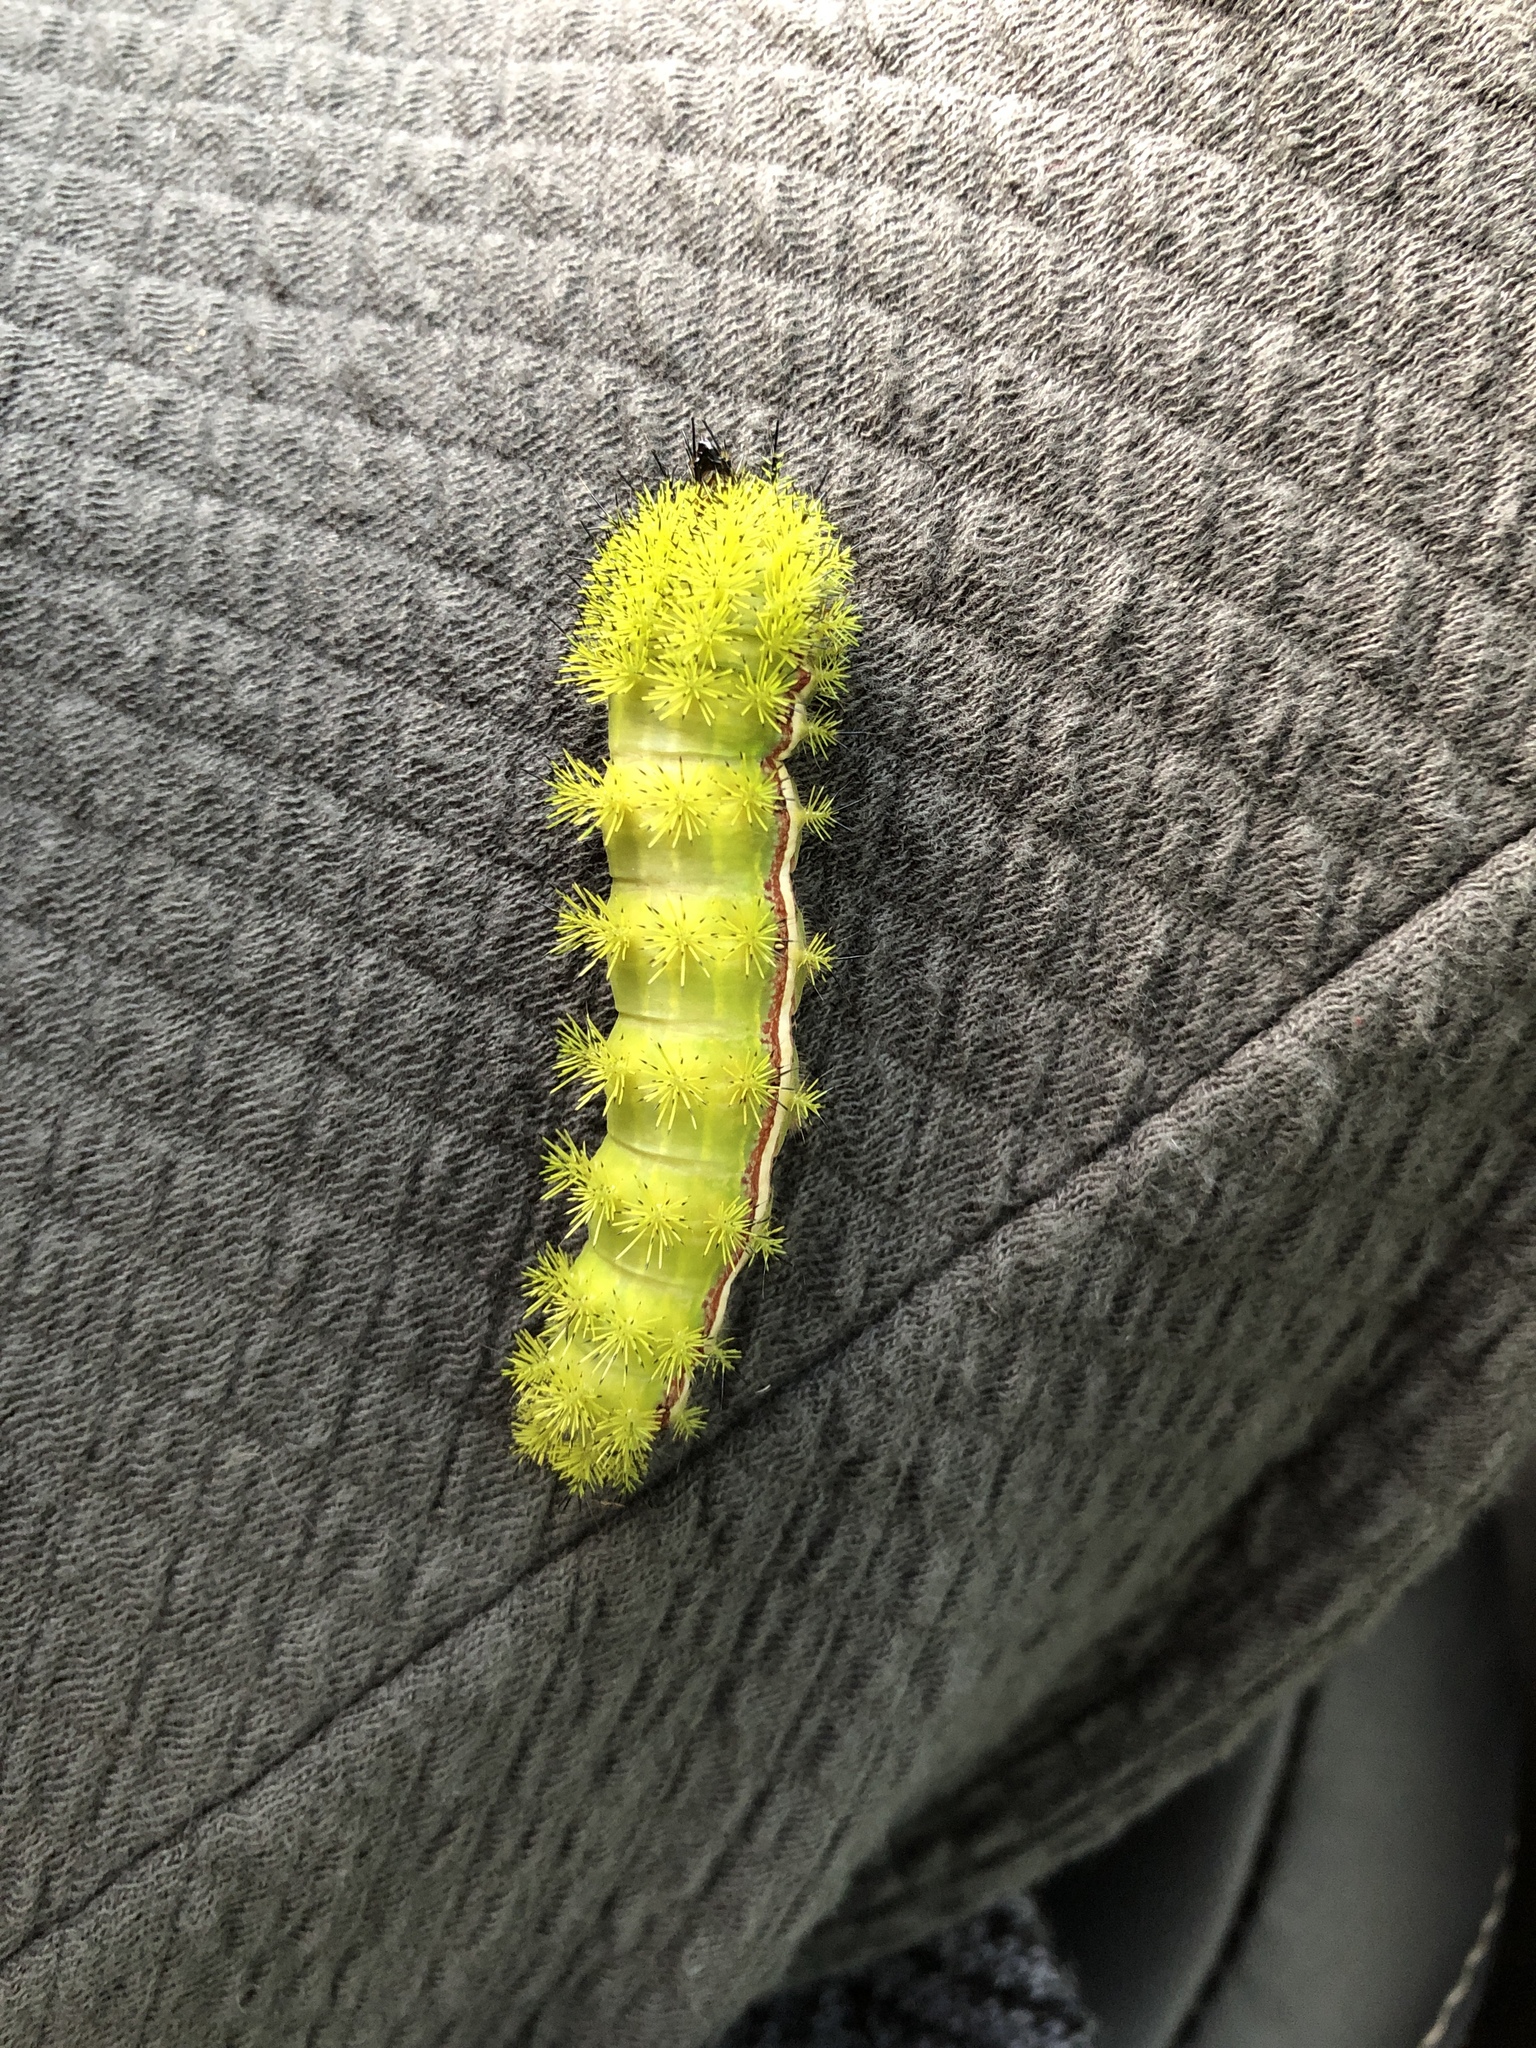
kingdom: Animalia
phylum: Arthropoda
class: Insecta
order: Lepidoptera
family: Saturniidae
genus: Automeris
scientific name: Automeris io
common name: Io moth
